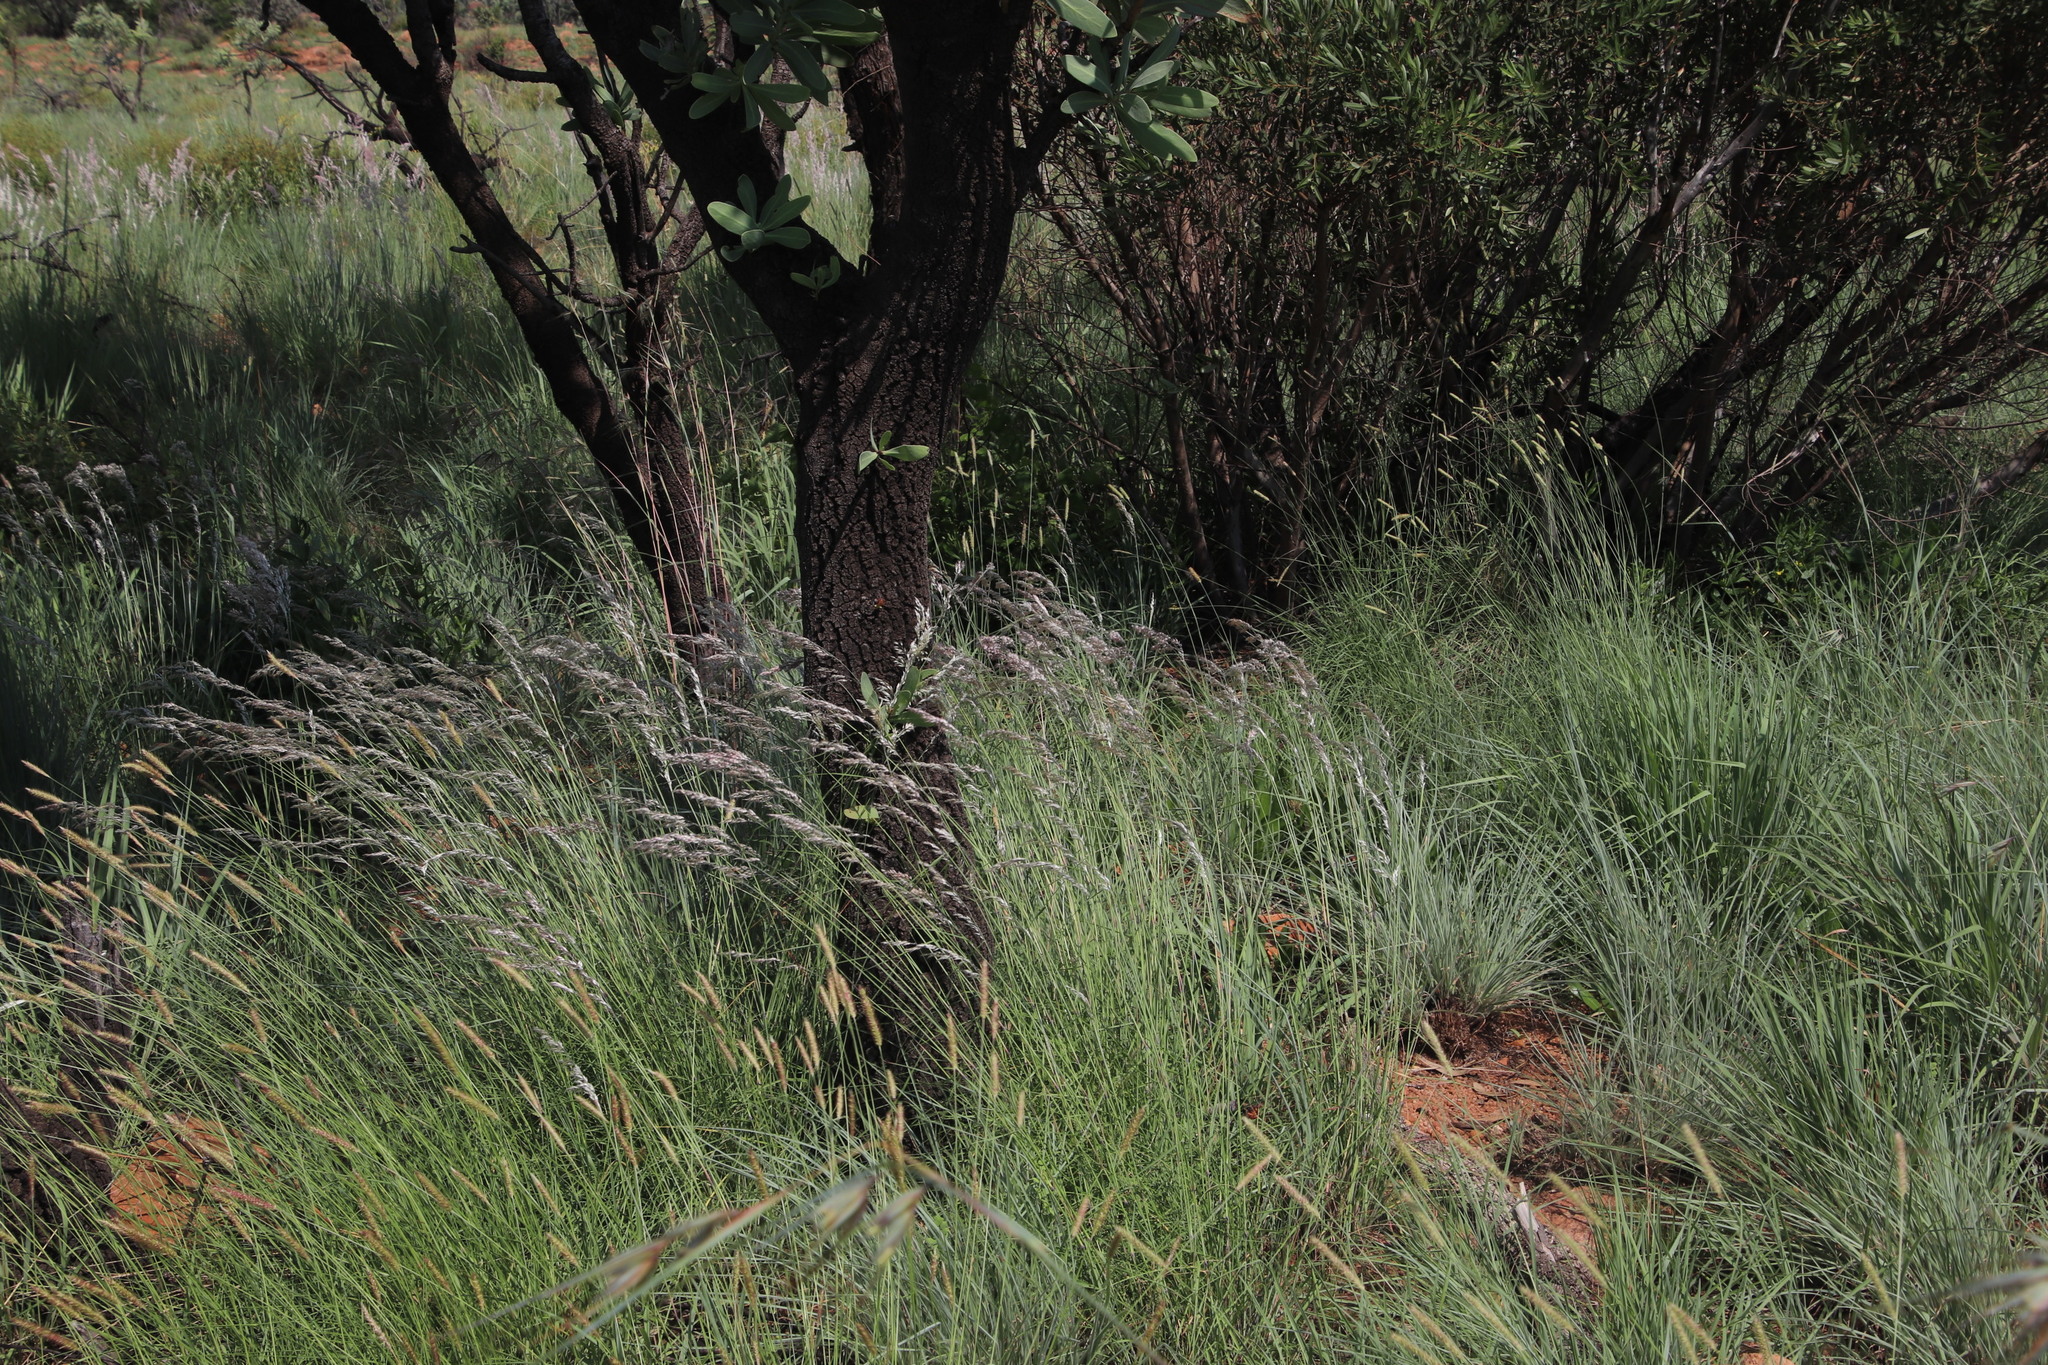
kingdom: Plantae
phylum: Tracheophyta
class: Liliopsida
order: Poales
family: Poaceae
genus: Melinis
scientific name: Melinis nerviglumis
